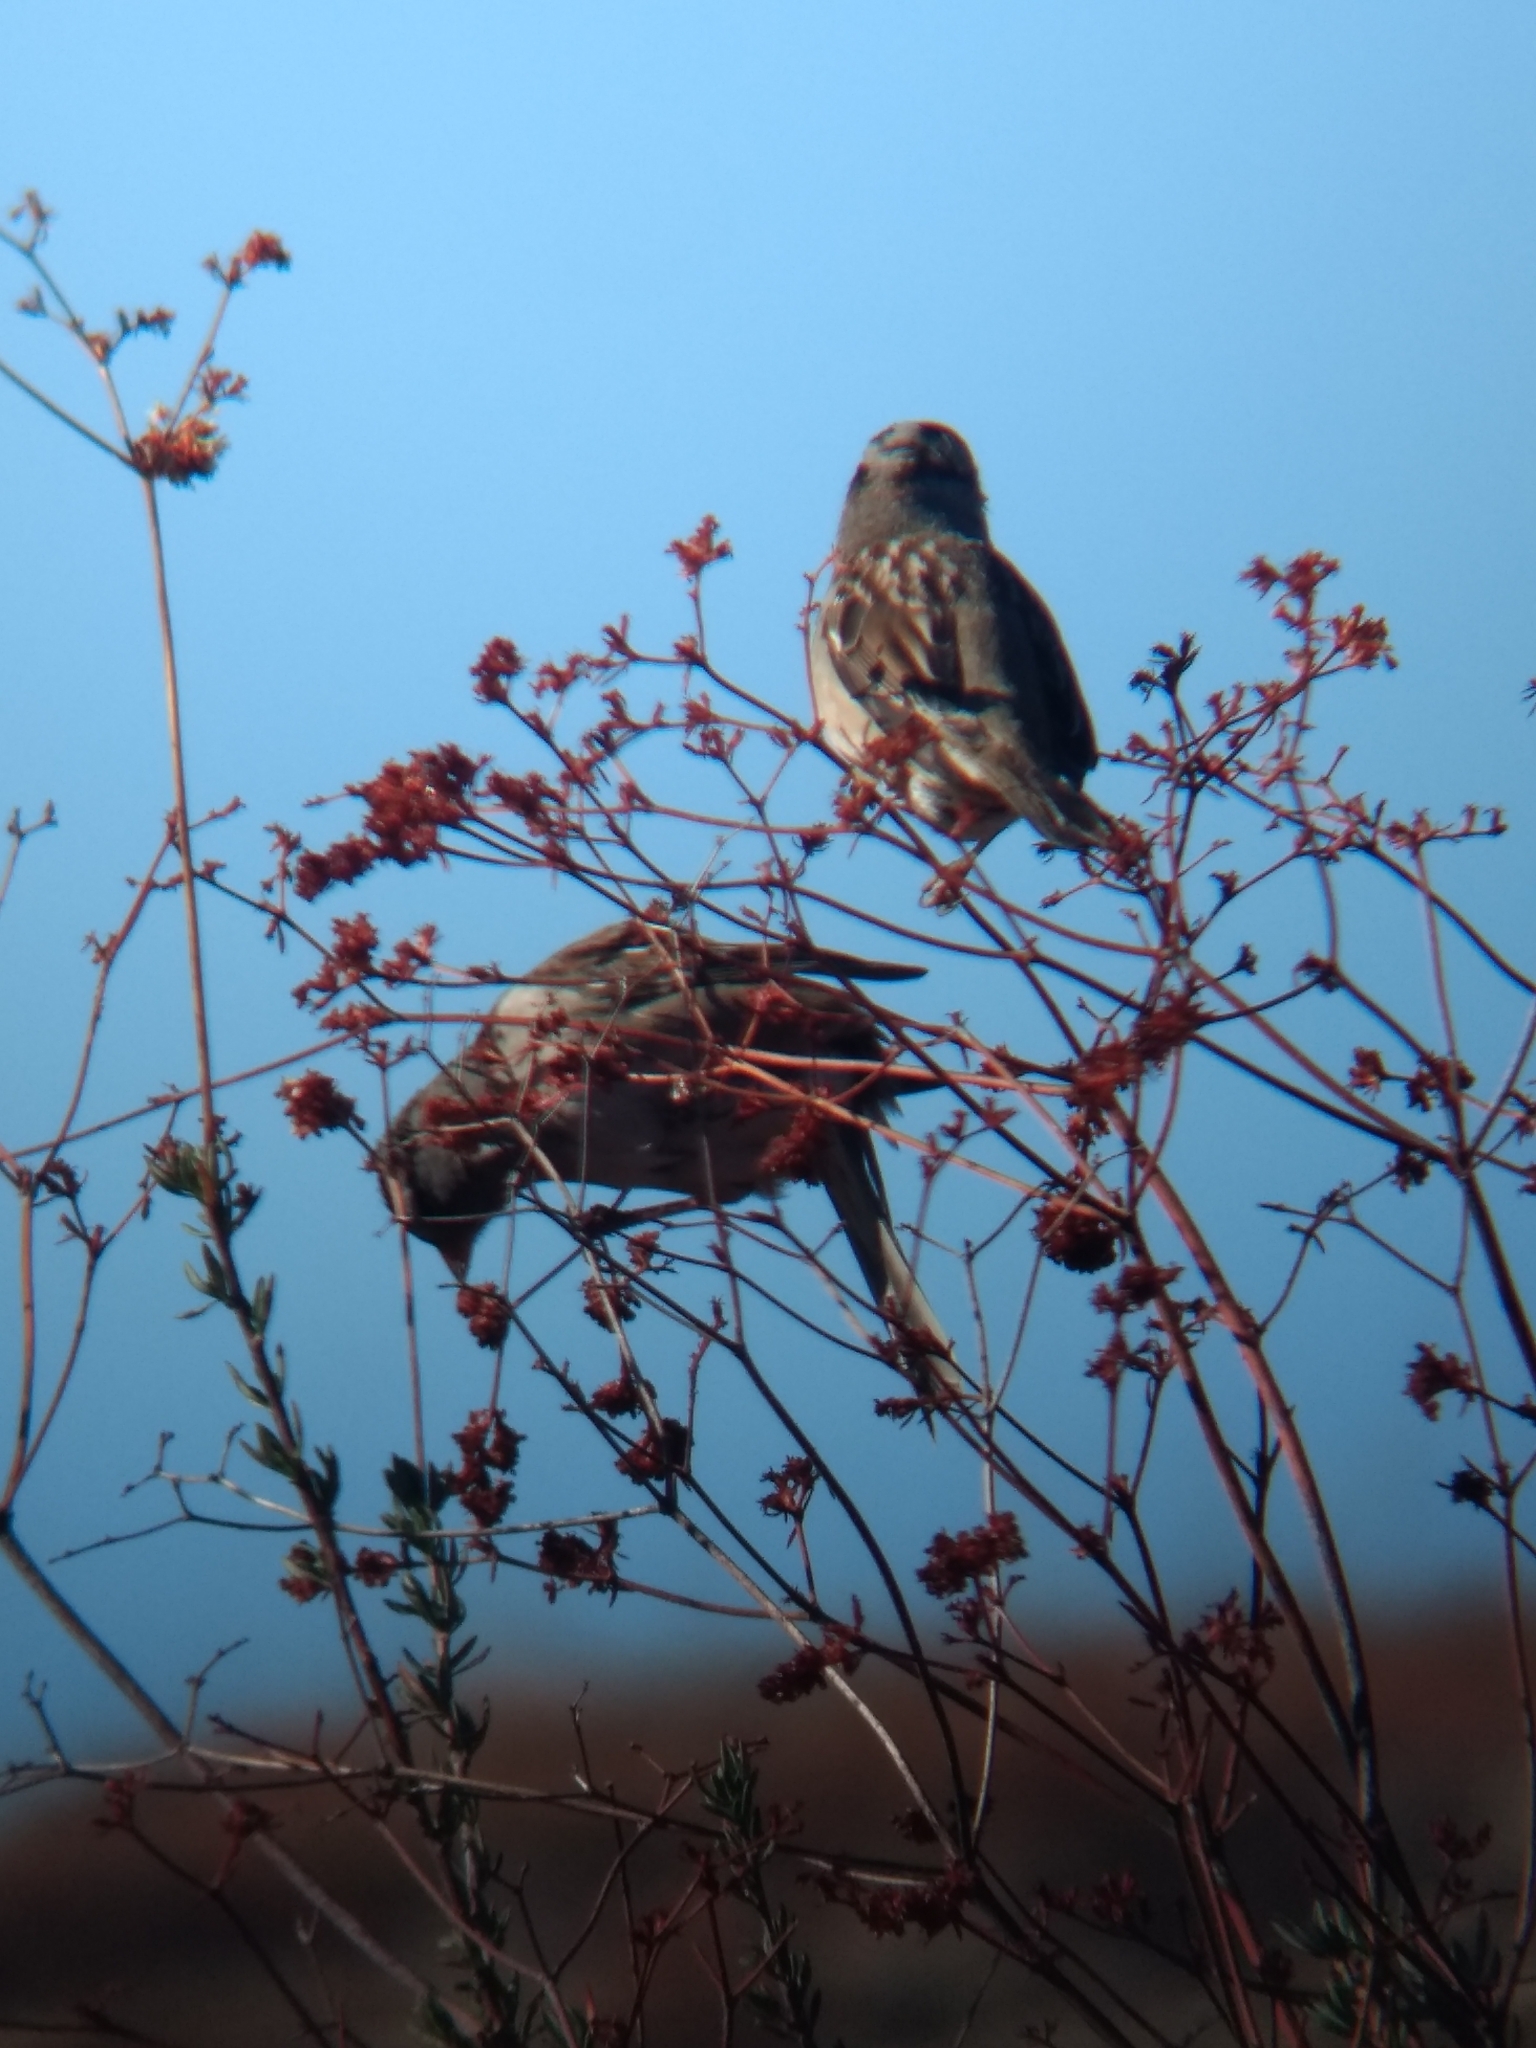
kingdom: Animalia
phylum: Chordata
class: Aves
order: Passeriformes
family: Passerellidae
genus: Zonotrichia
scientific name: Zonotrichia leucophrys
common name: White-crowned sparrow
